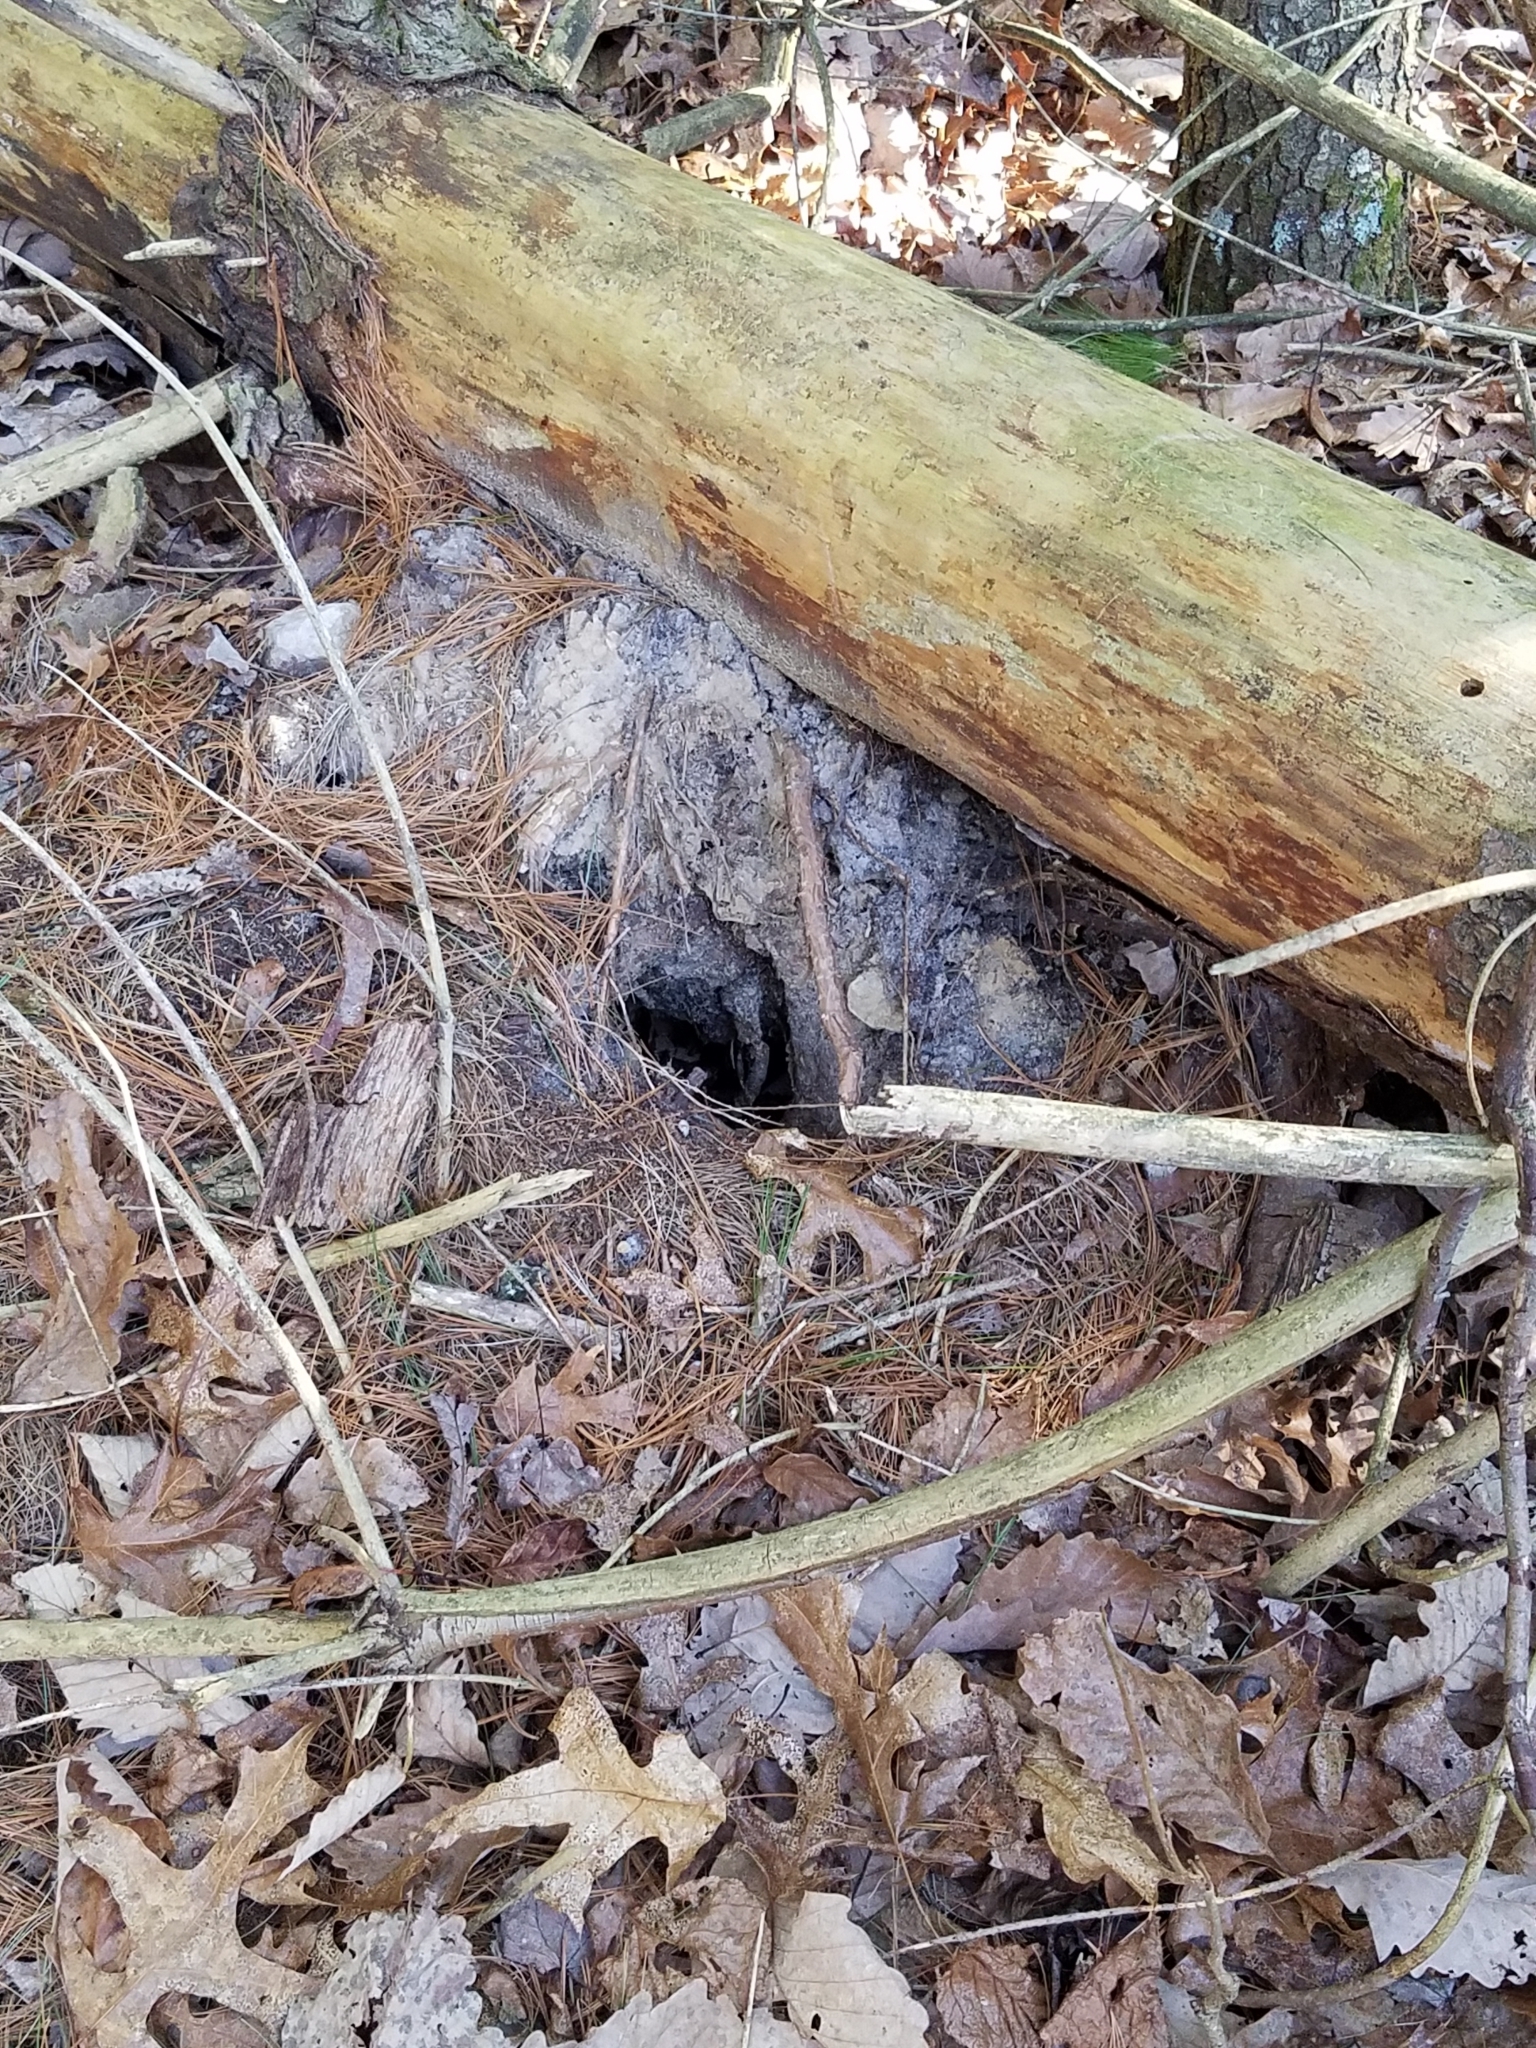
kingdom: Animalia
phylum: Chordata
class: Mammalia
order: Rodentia
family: Sciuridae
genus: Tamias
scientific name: Tamias striatus
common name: Eastern chipmunk
